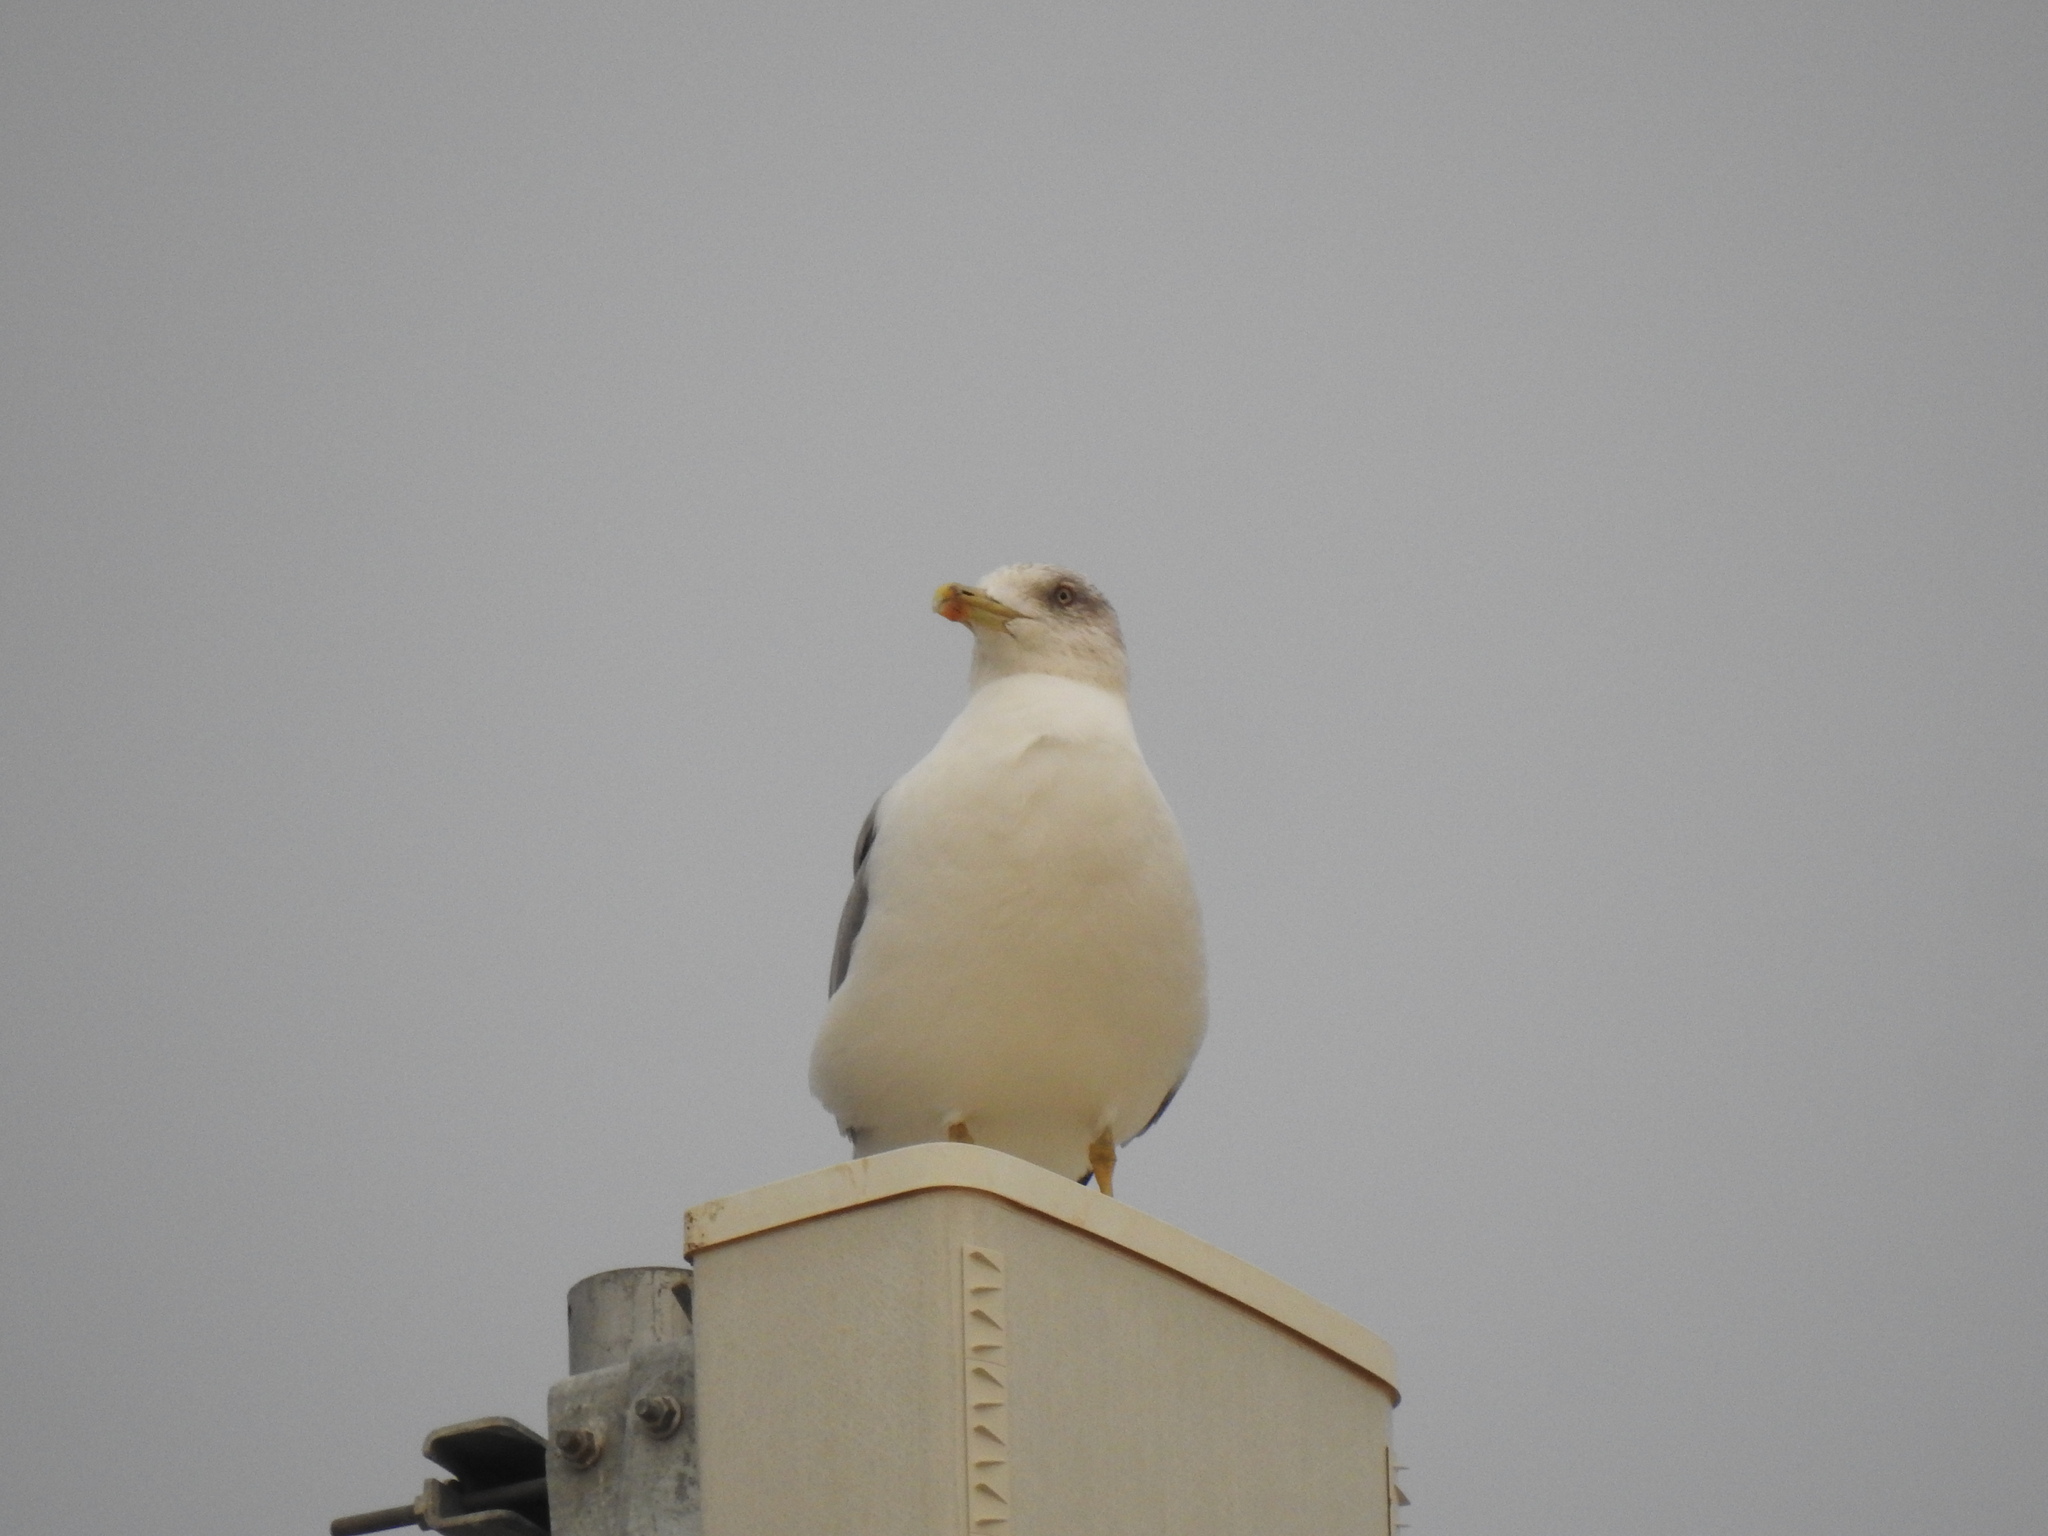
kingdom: Animalia
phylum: Chordata
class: Aves
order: Charadriiformes
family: Laridae
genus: Larus
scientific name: Larus michahellis
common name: Yellow-legged gull
